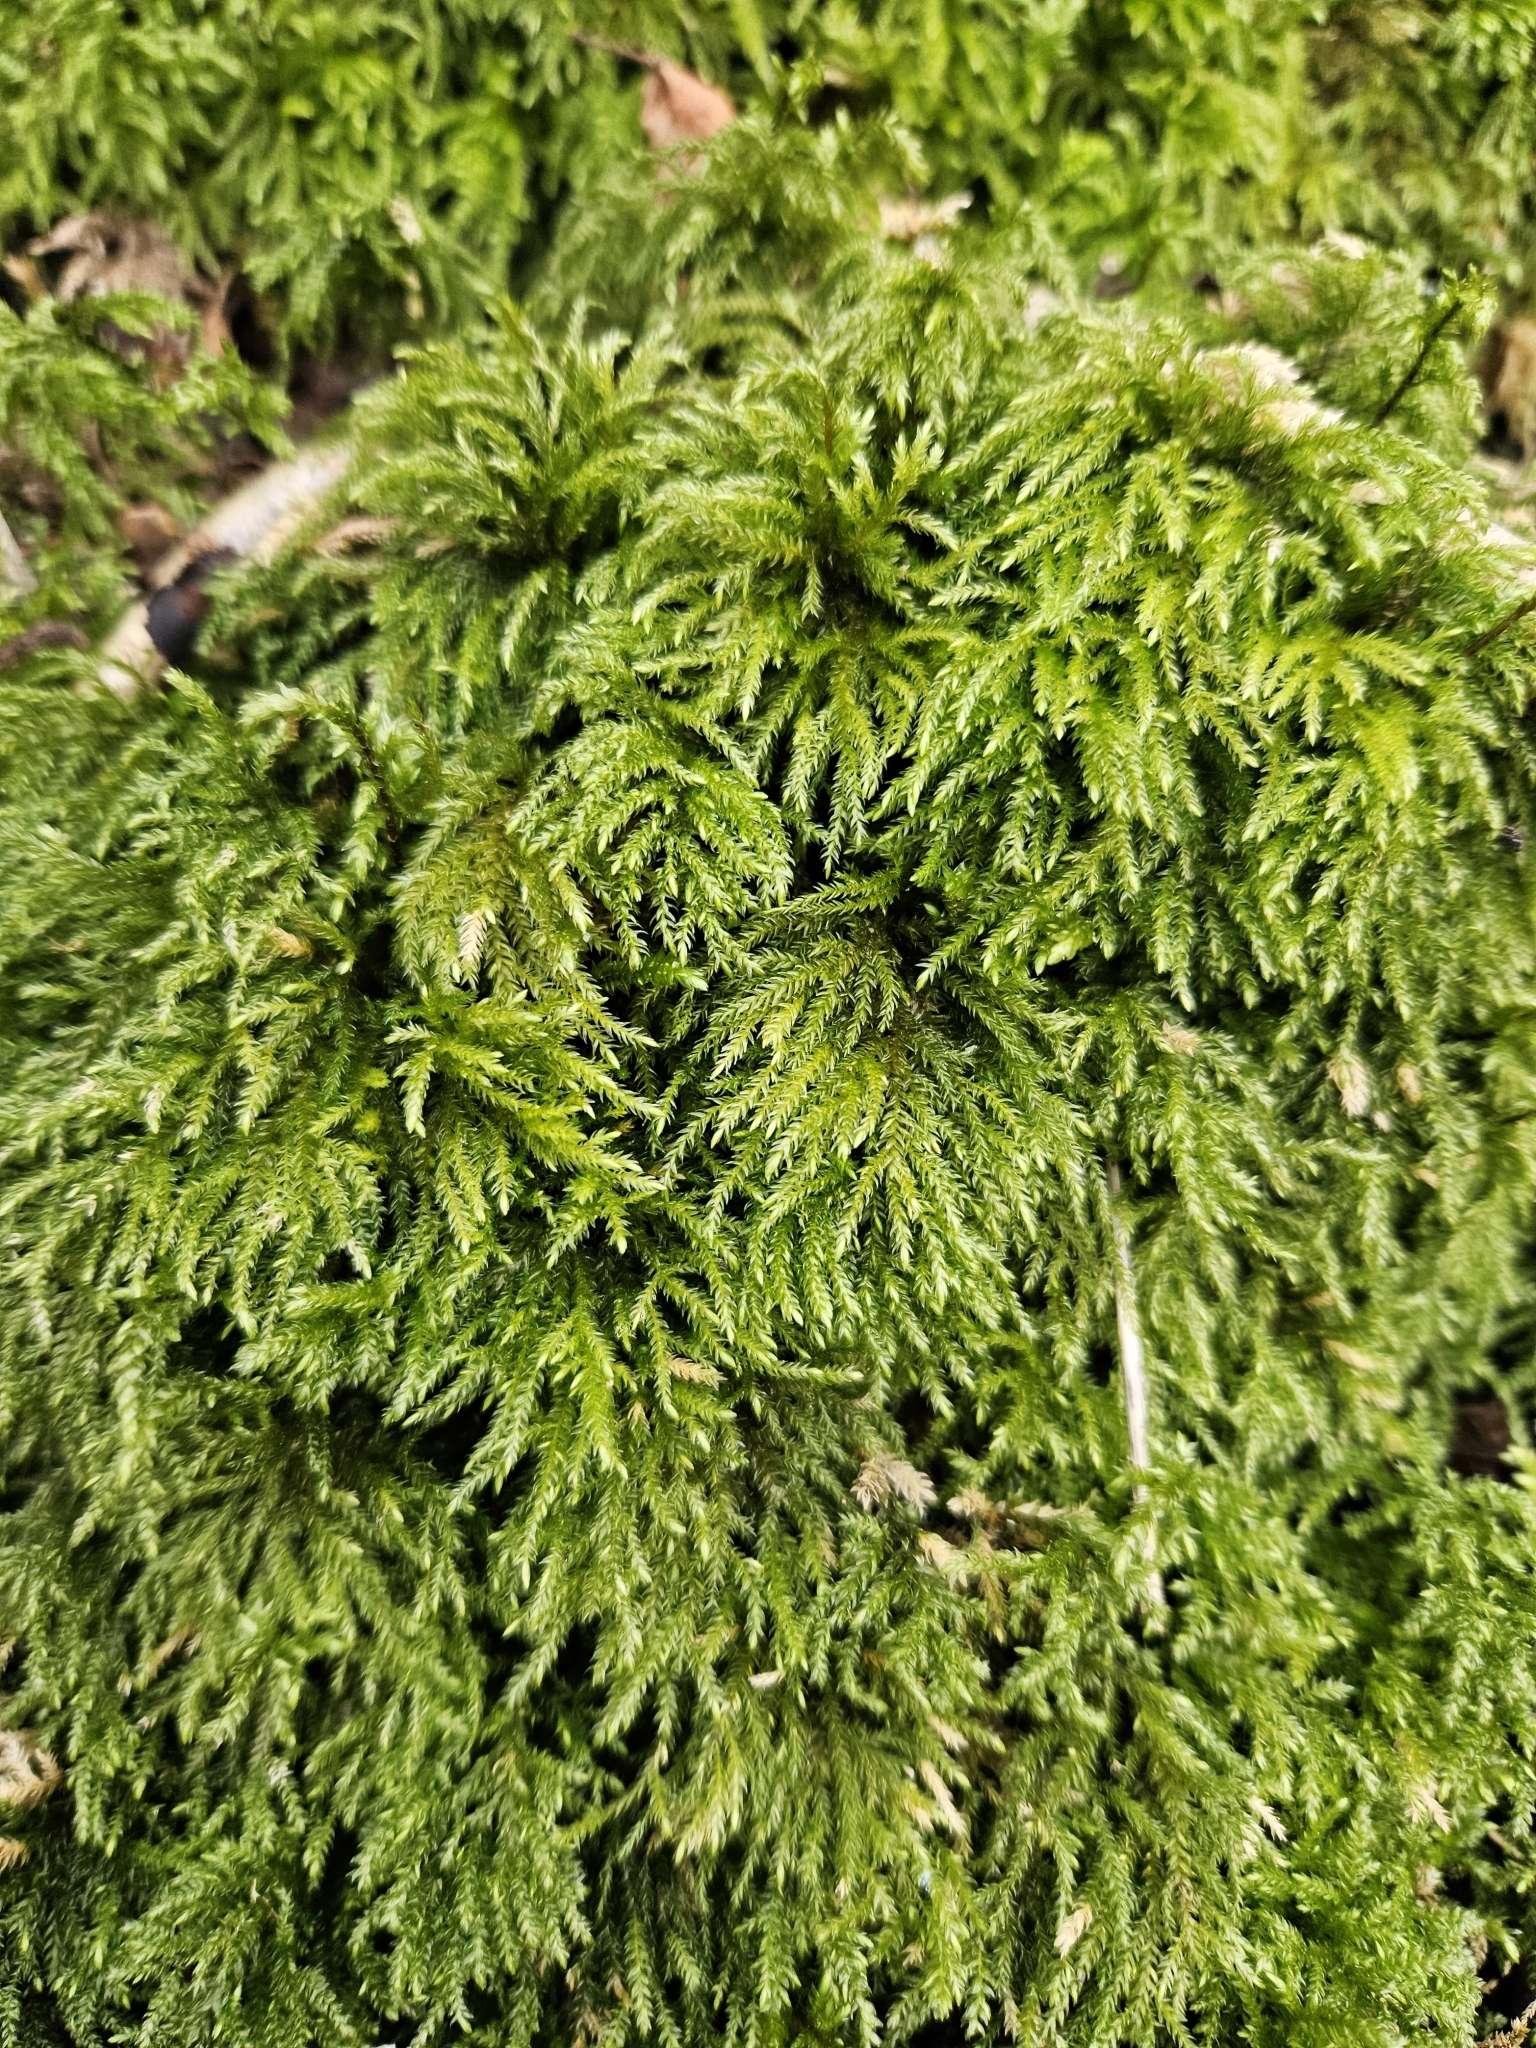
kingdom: Plantae
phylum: Bryophyta
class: Bryopsida
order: Hypnales
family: Neckeraceae
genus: Thamnobryum
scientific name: Thamnobryum alopecurum
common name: Fox-tail feather-moss
